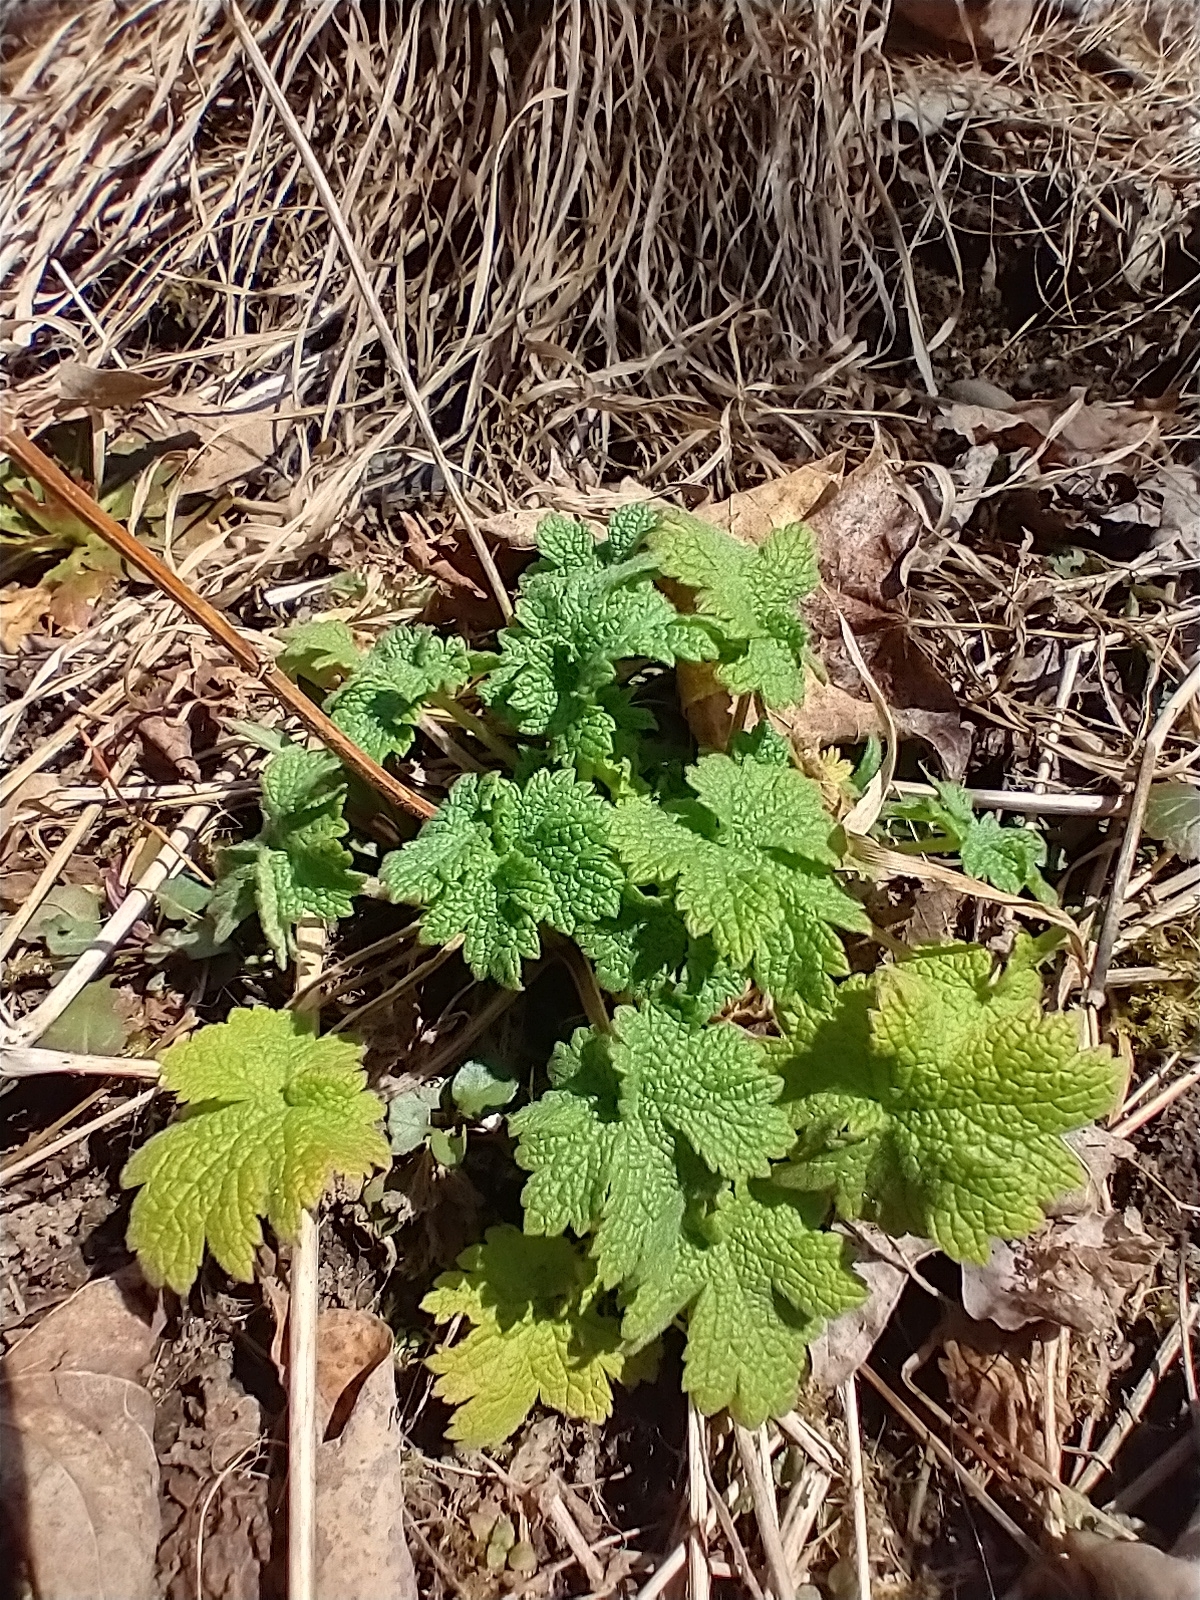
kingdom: Plantae
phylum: Tracheophyta
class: Magnoliopsida
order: Lamiales
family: Lamiaceae
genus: Leonurus
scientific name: Leonurus cardiaca
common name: Motherwort
